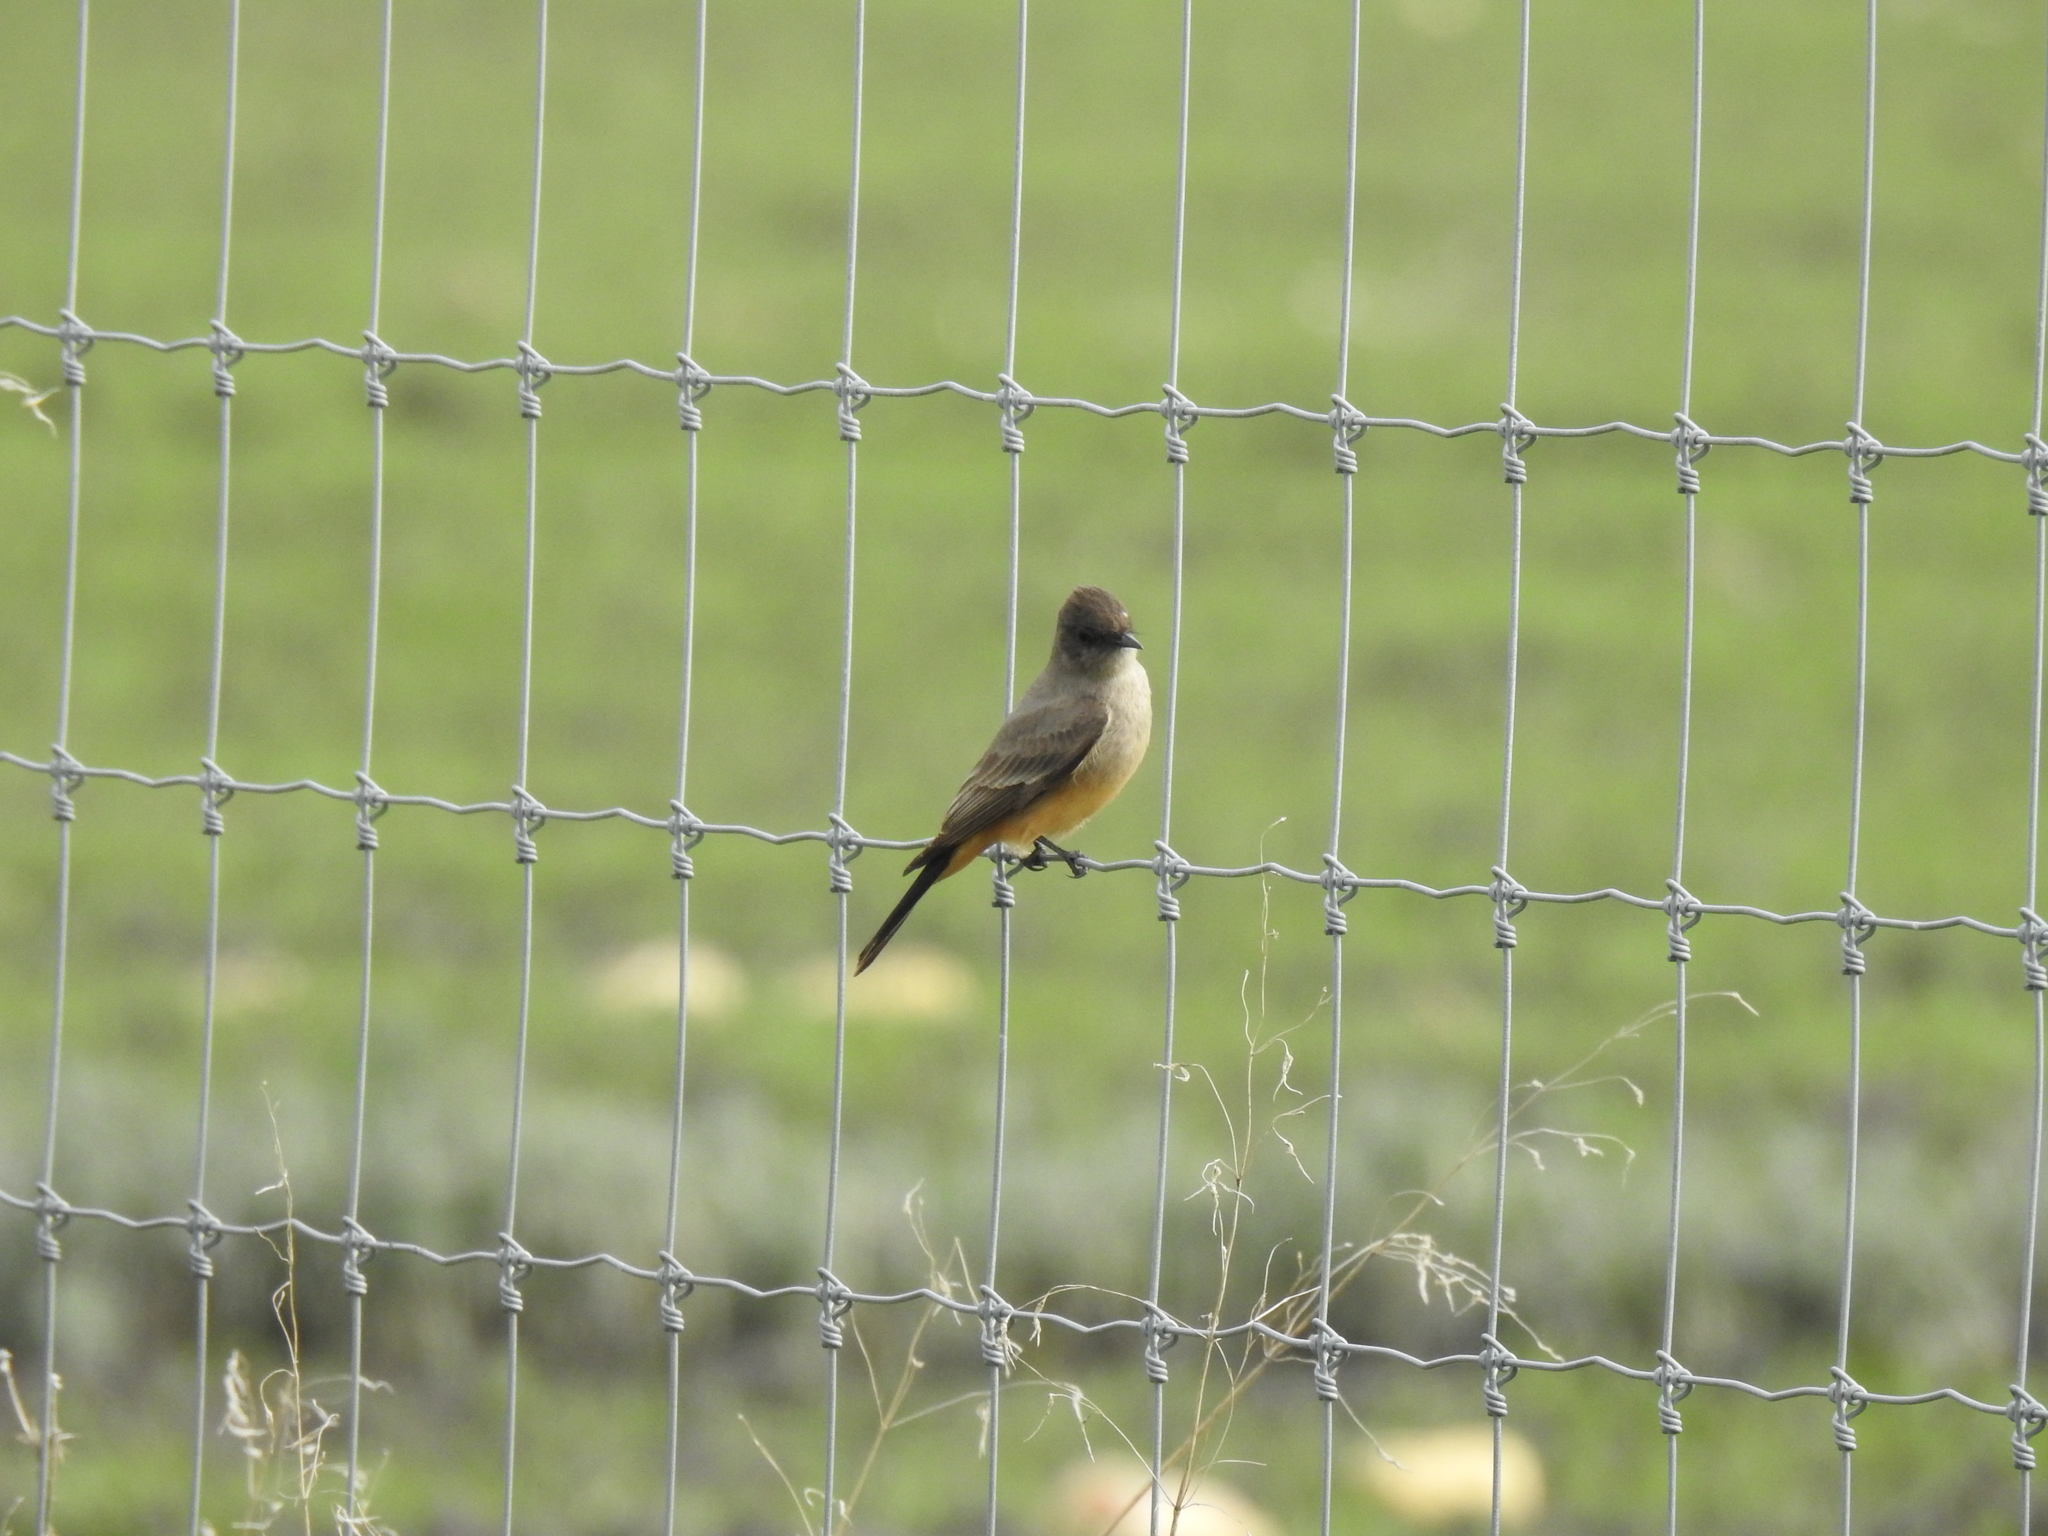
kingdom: Animalia
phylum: Chordata
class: Aves
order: Passeriformes
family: Tyrannidae
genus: Sayornis
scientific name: Sayornis saya
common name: Say's phoebe
